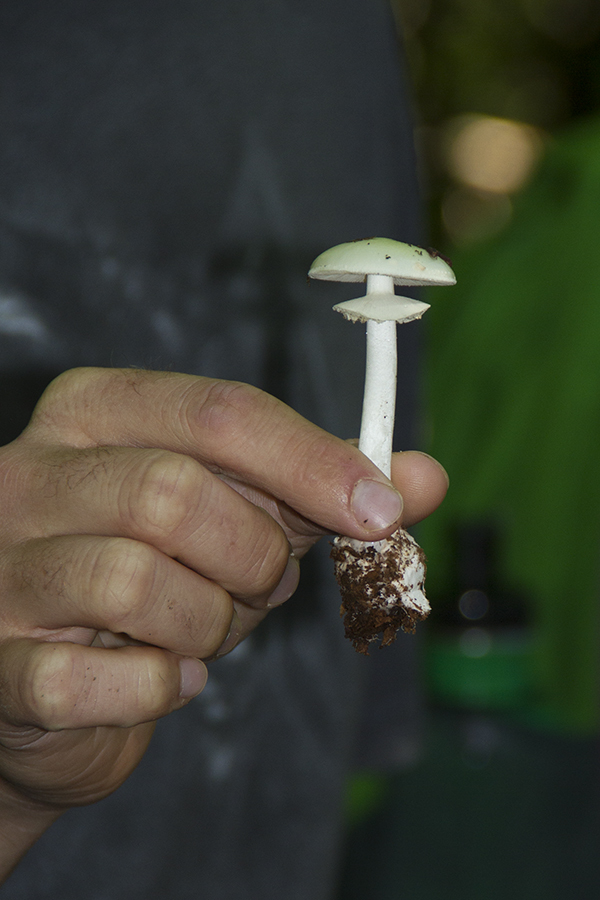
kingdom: Fungi
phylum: Basidiomycota
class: Agaricomycetes
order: Agaricales
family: Amanitaceae
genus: Amanita
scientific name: Amanita lavendula
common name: Coker's lavender staining amanita
